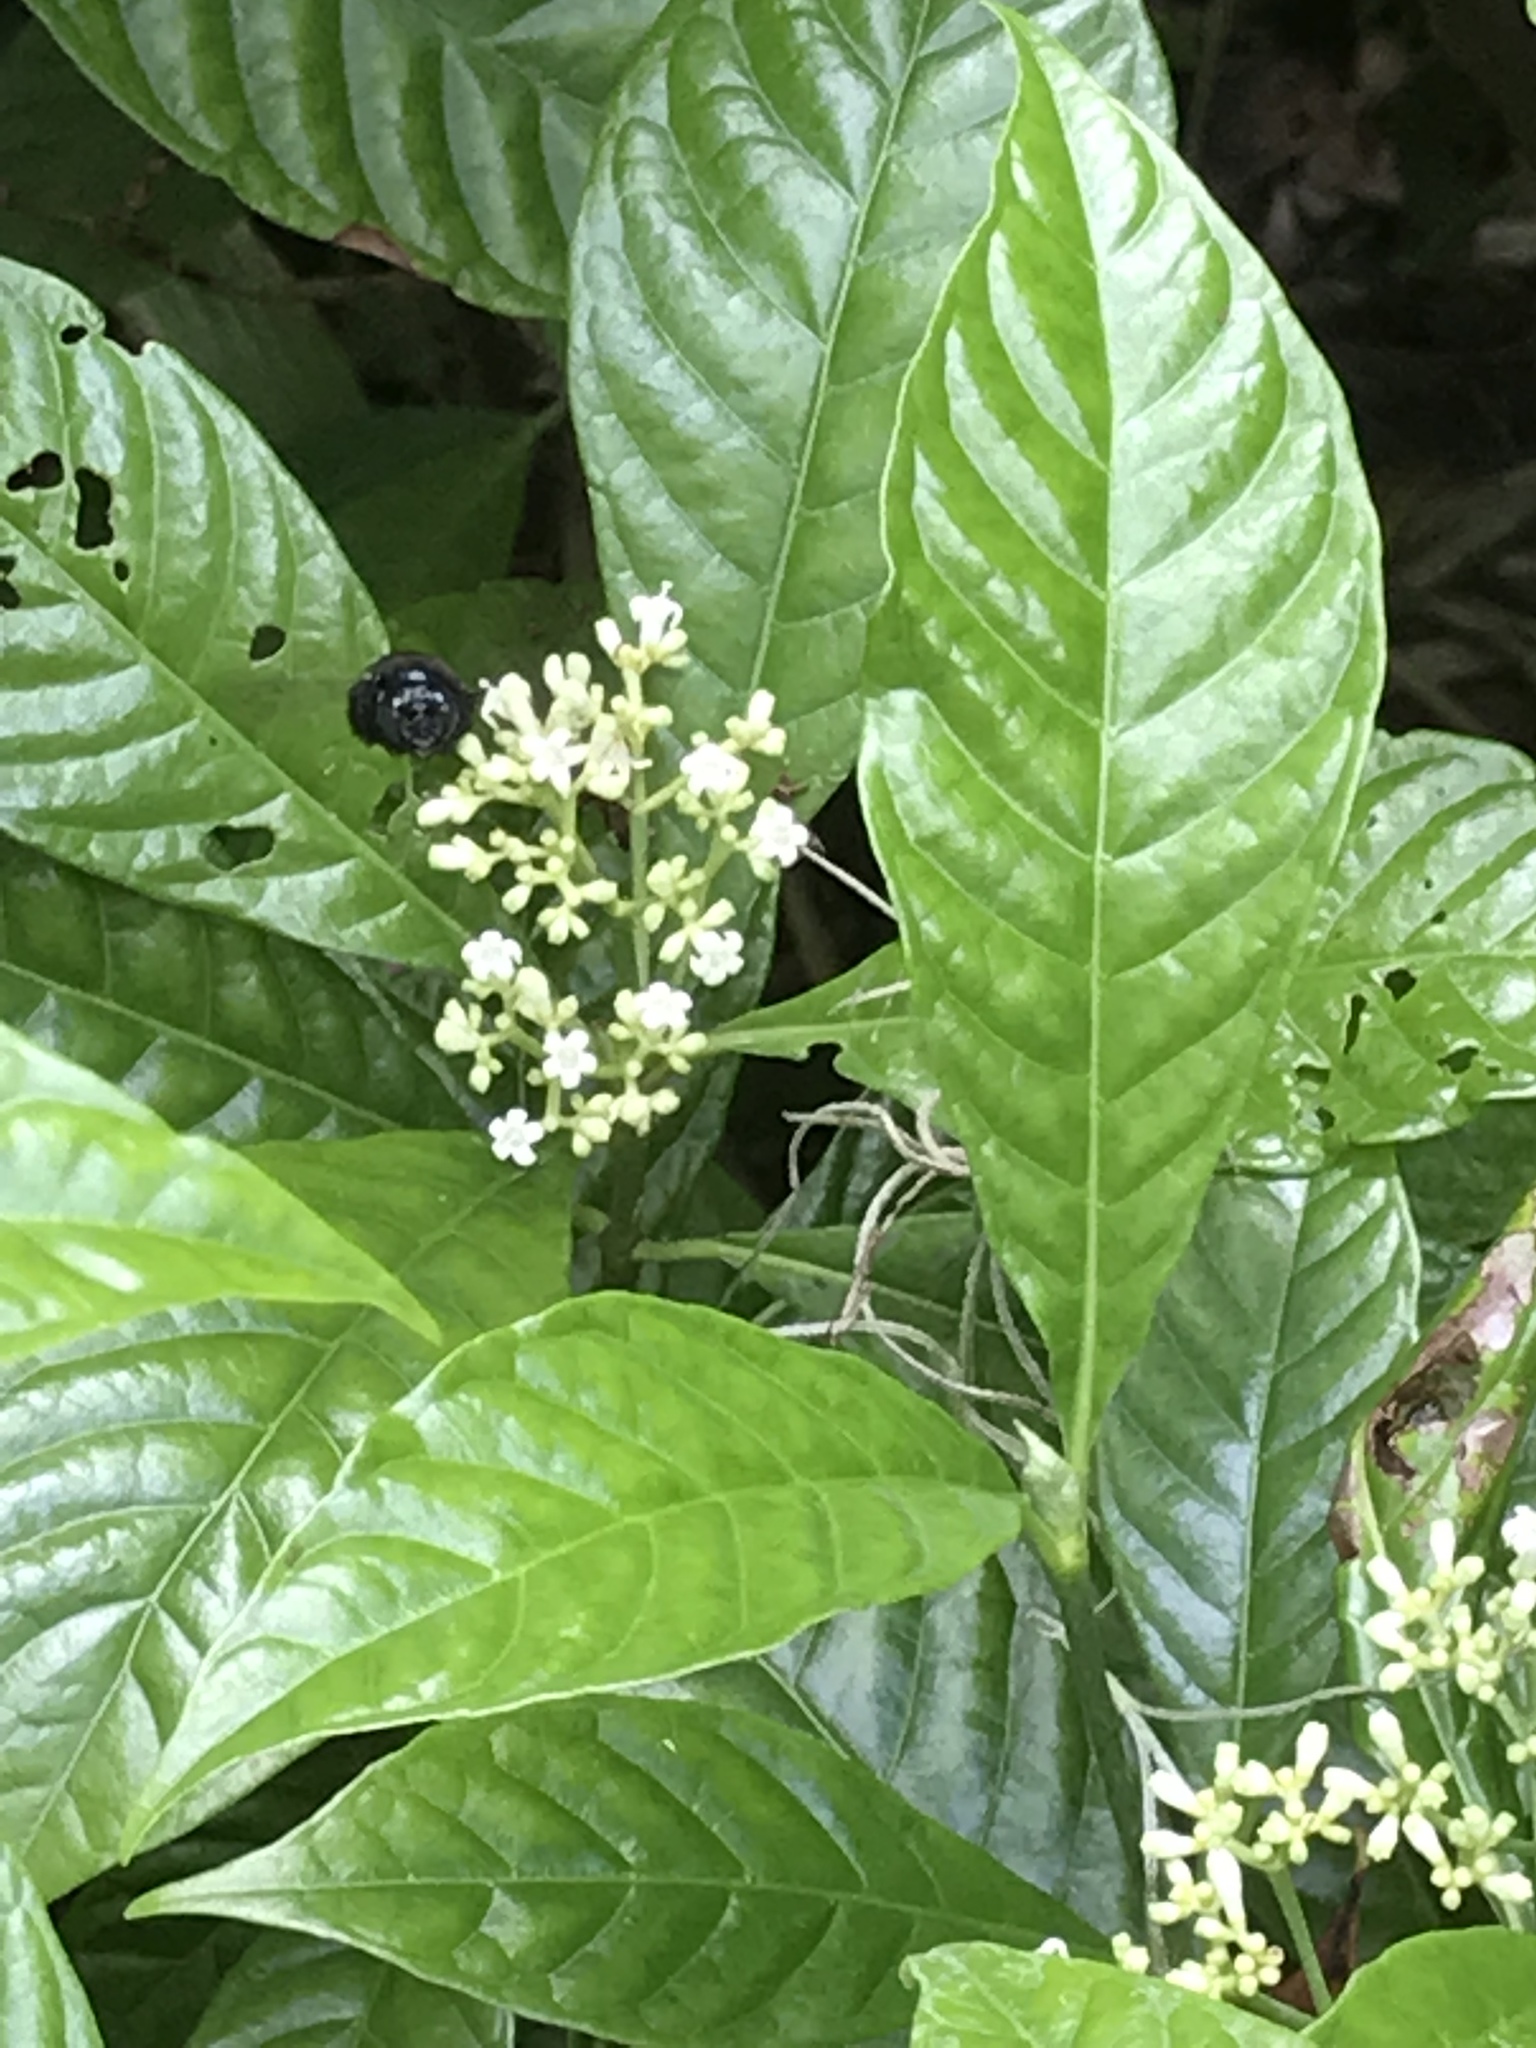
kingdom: Animalia
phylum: Arthropoda
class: Insecta
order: Hymenoptera
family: Apidae
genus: Xylocopa
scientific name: Xylocopa micans
